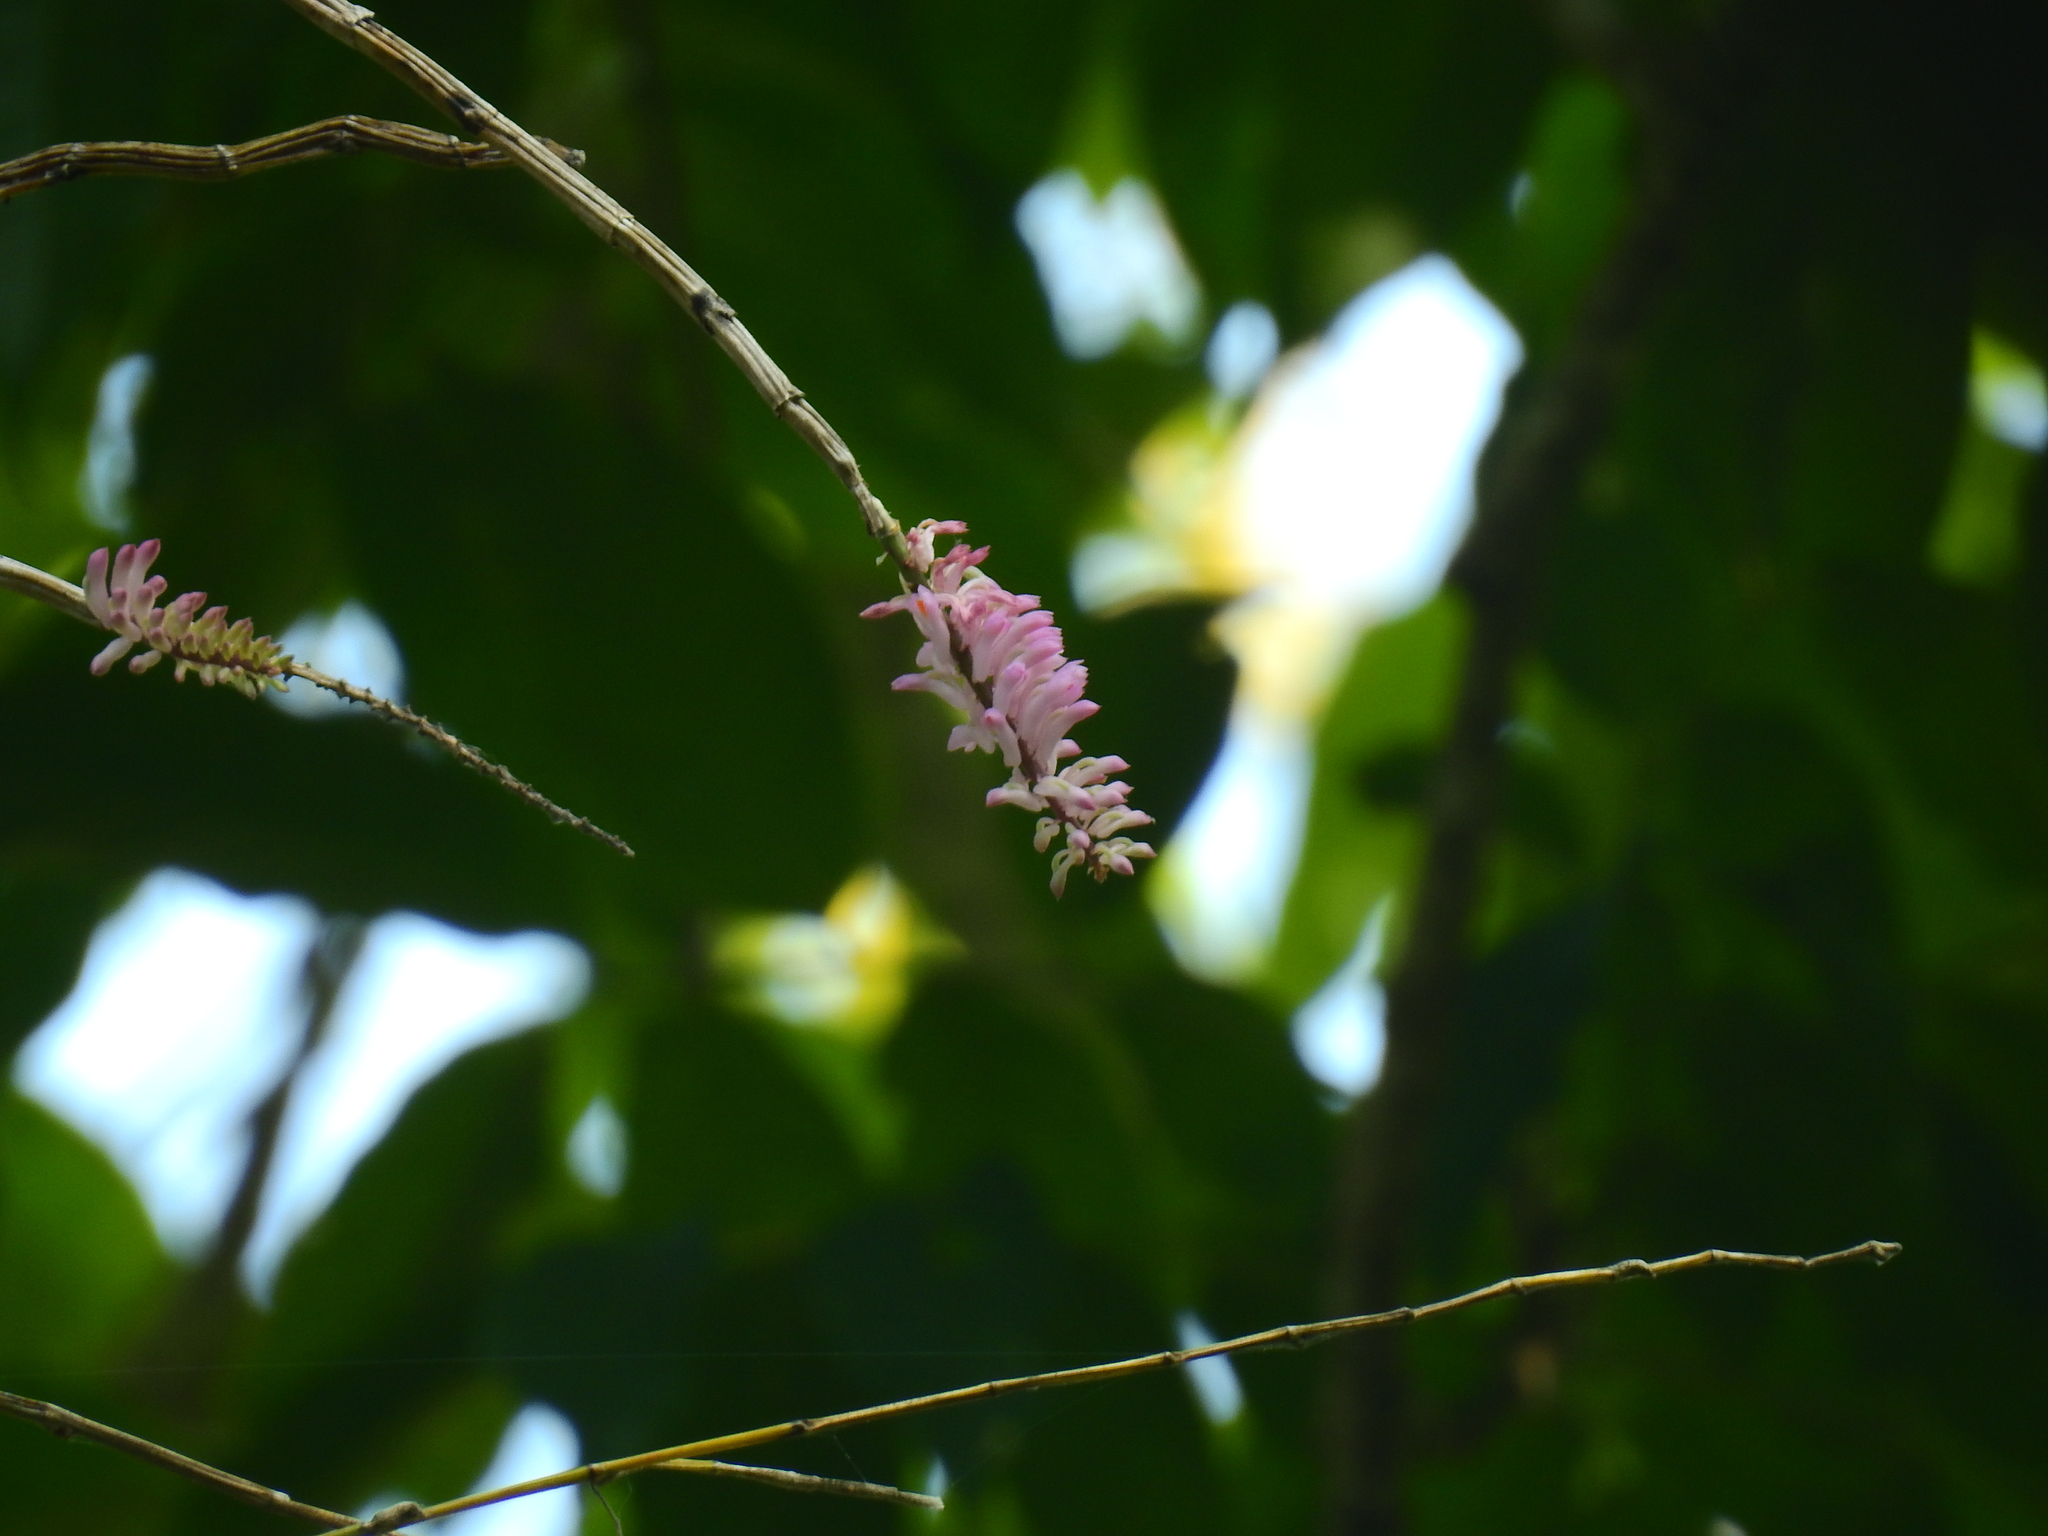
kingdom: Plantae
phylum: Tracheophyta
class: Liliopsida
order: Asparagales
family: Orchidaceae
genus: Dendrobium
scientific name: Dendrobium secundum
